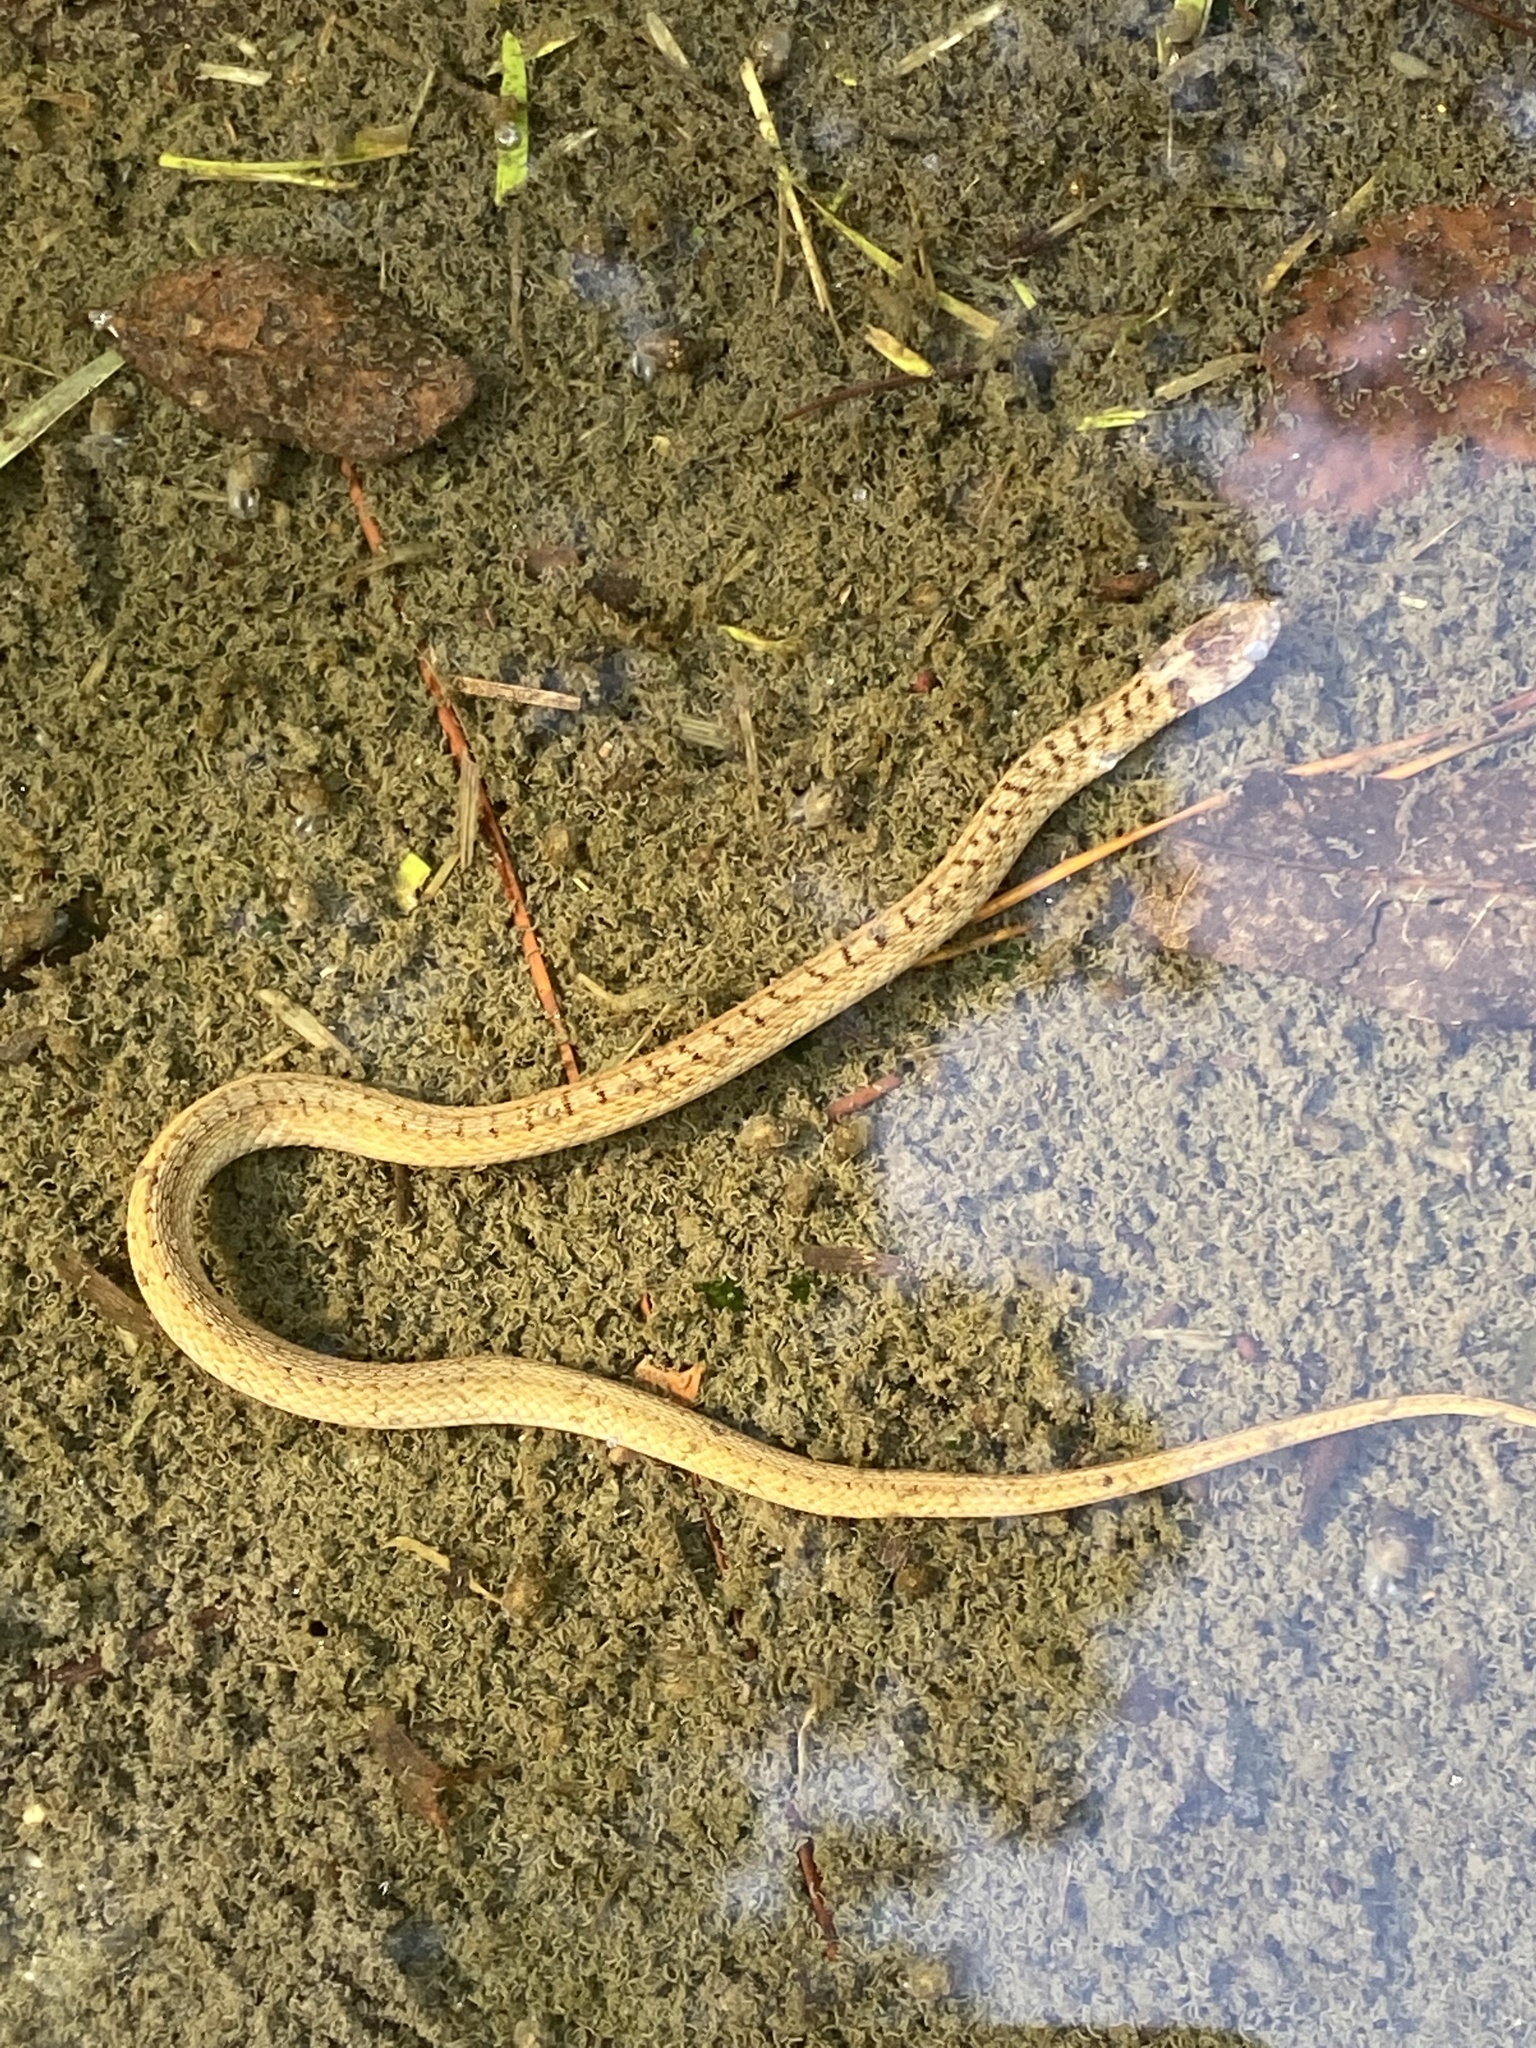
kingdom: Animalia
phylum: Chordata
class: Squamata
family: Colubridae
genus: Storeria
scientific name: Storeria dekayi
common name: (dekay’s) brown snake
